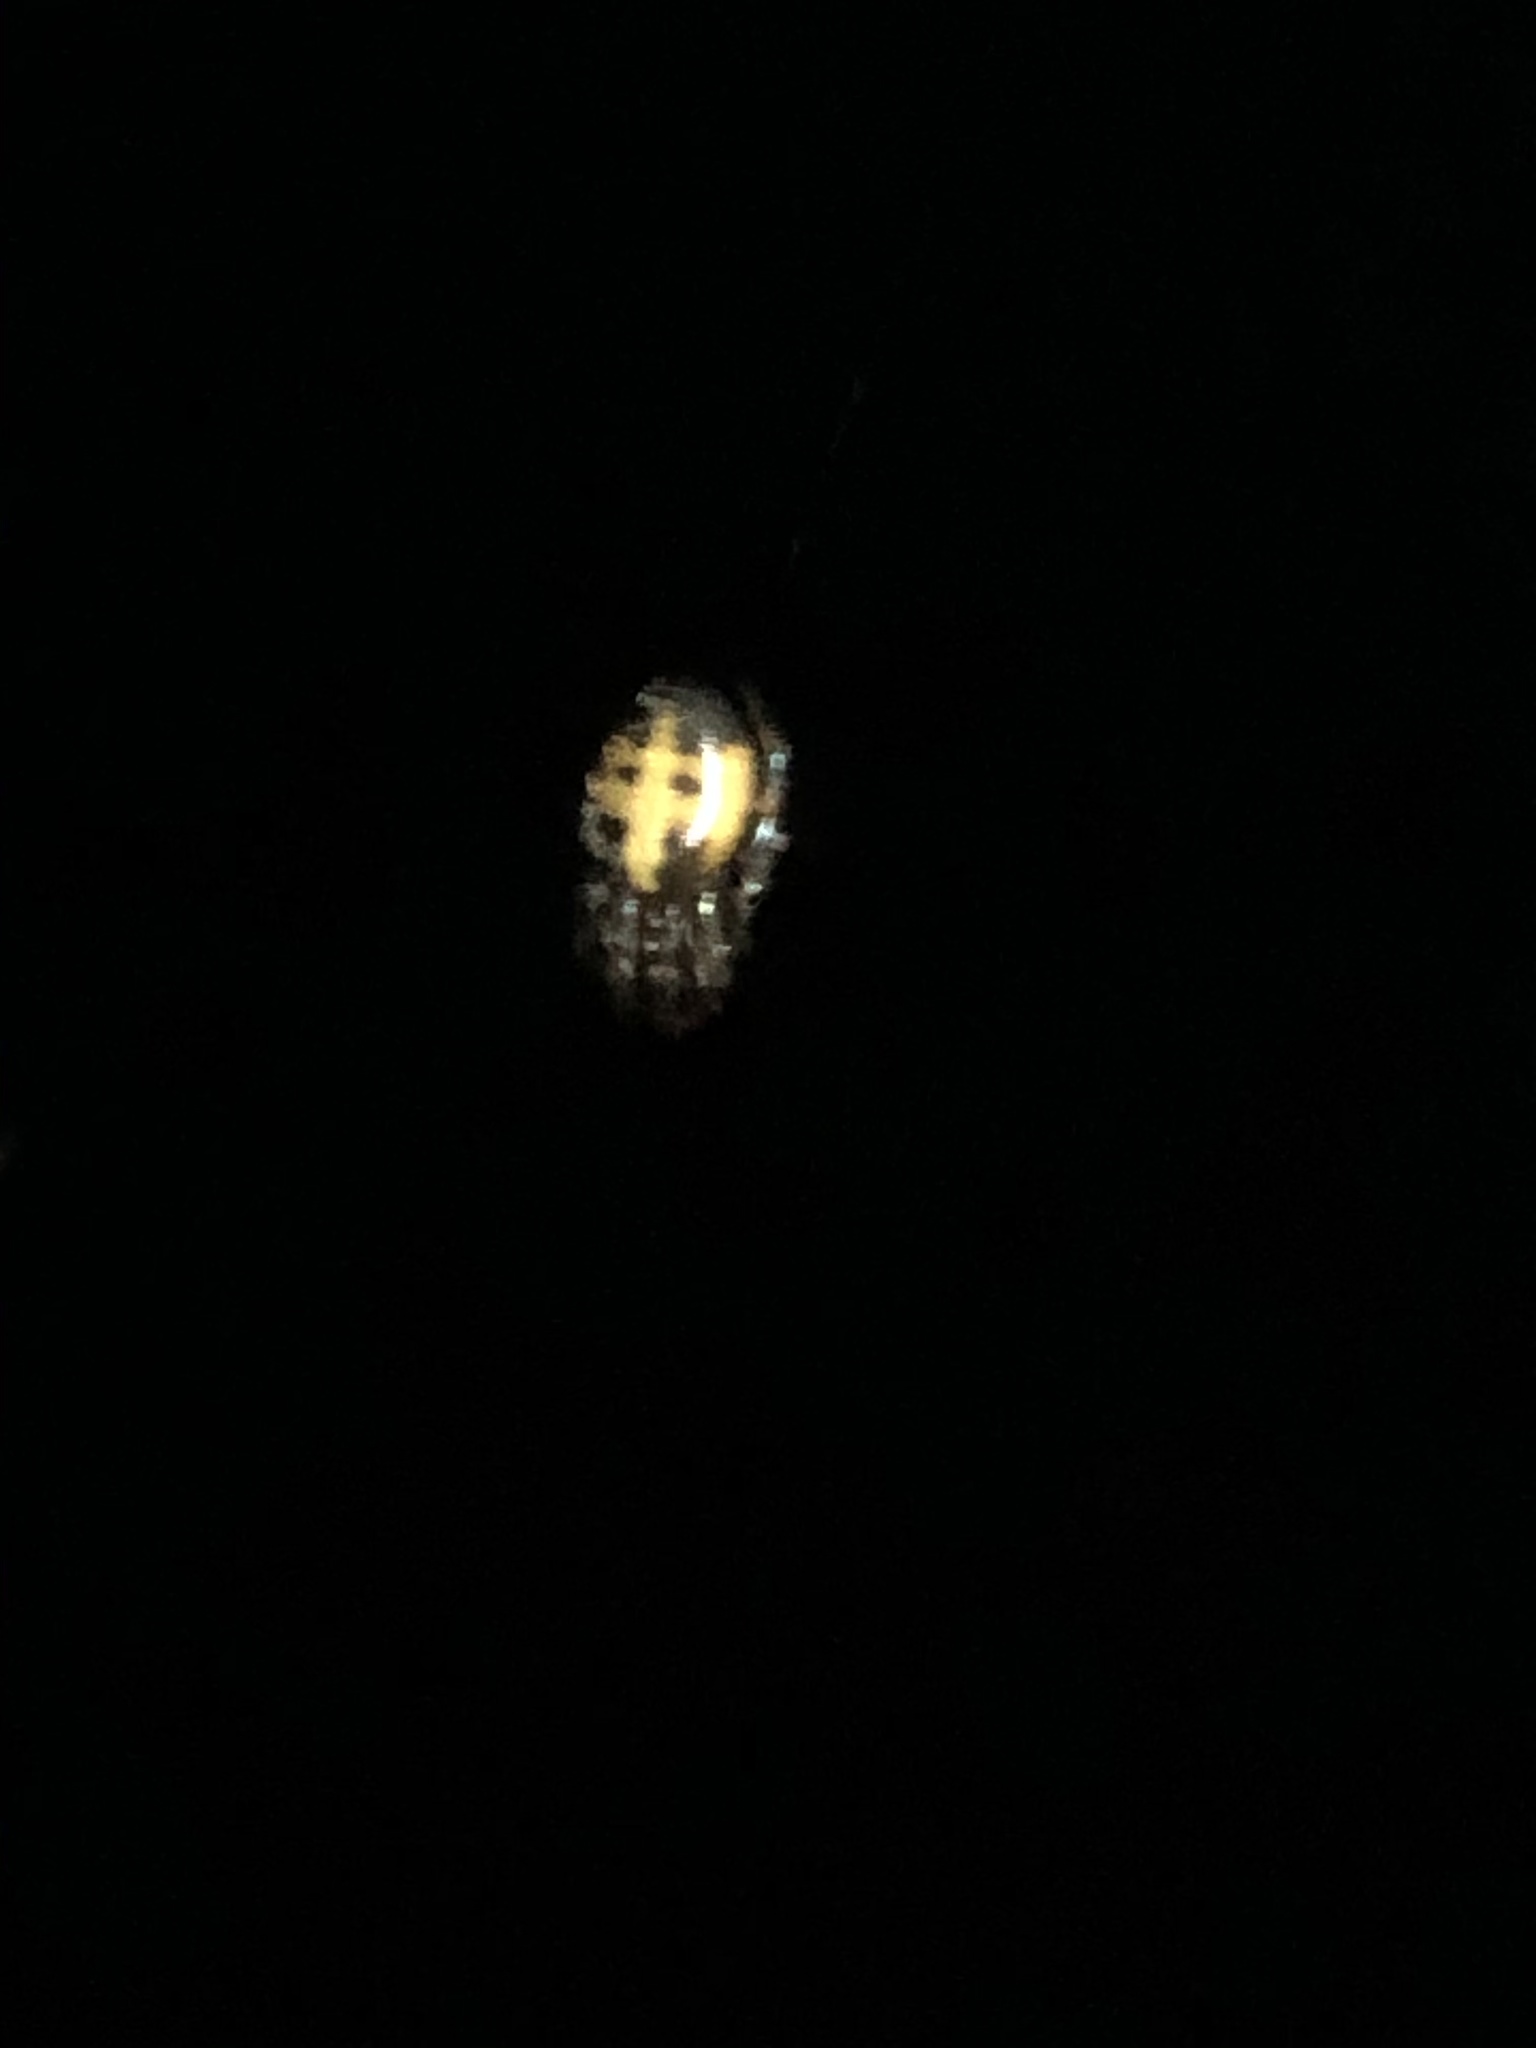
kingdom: Animalia
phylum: Arthropoda
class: Arachnida
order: Araneae
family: Araneidae
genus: Metazygia
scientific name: Metazygia patiama
